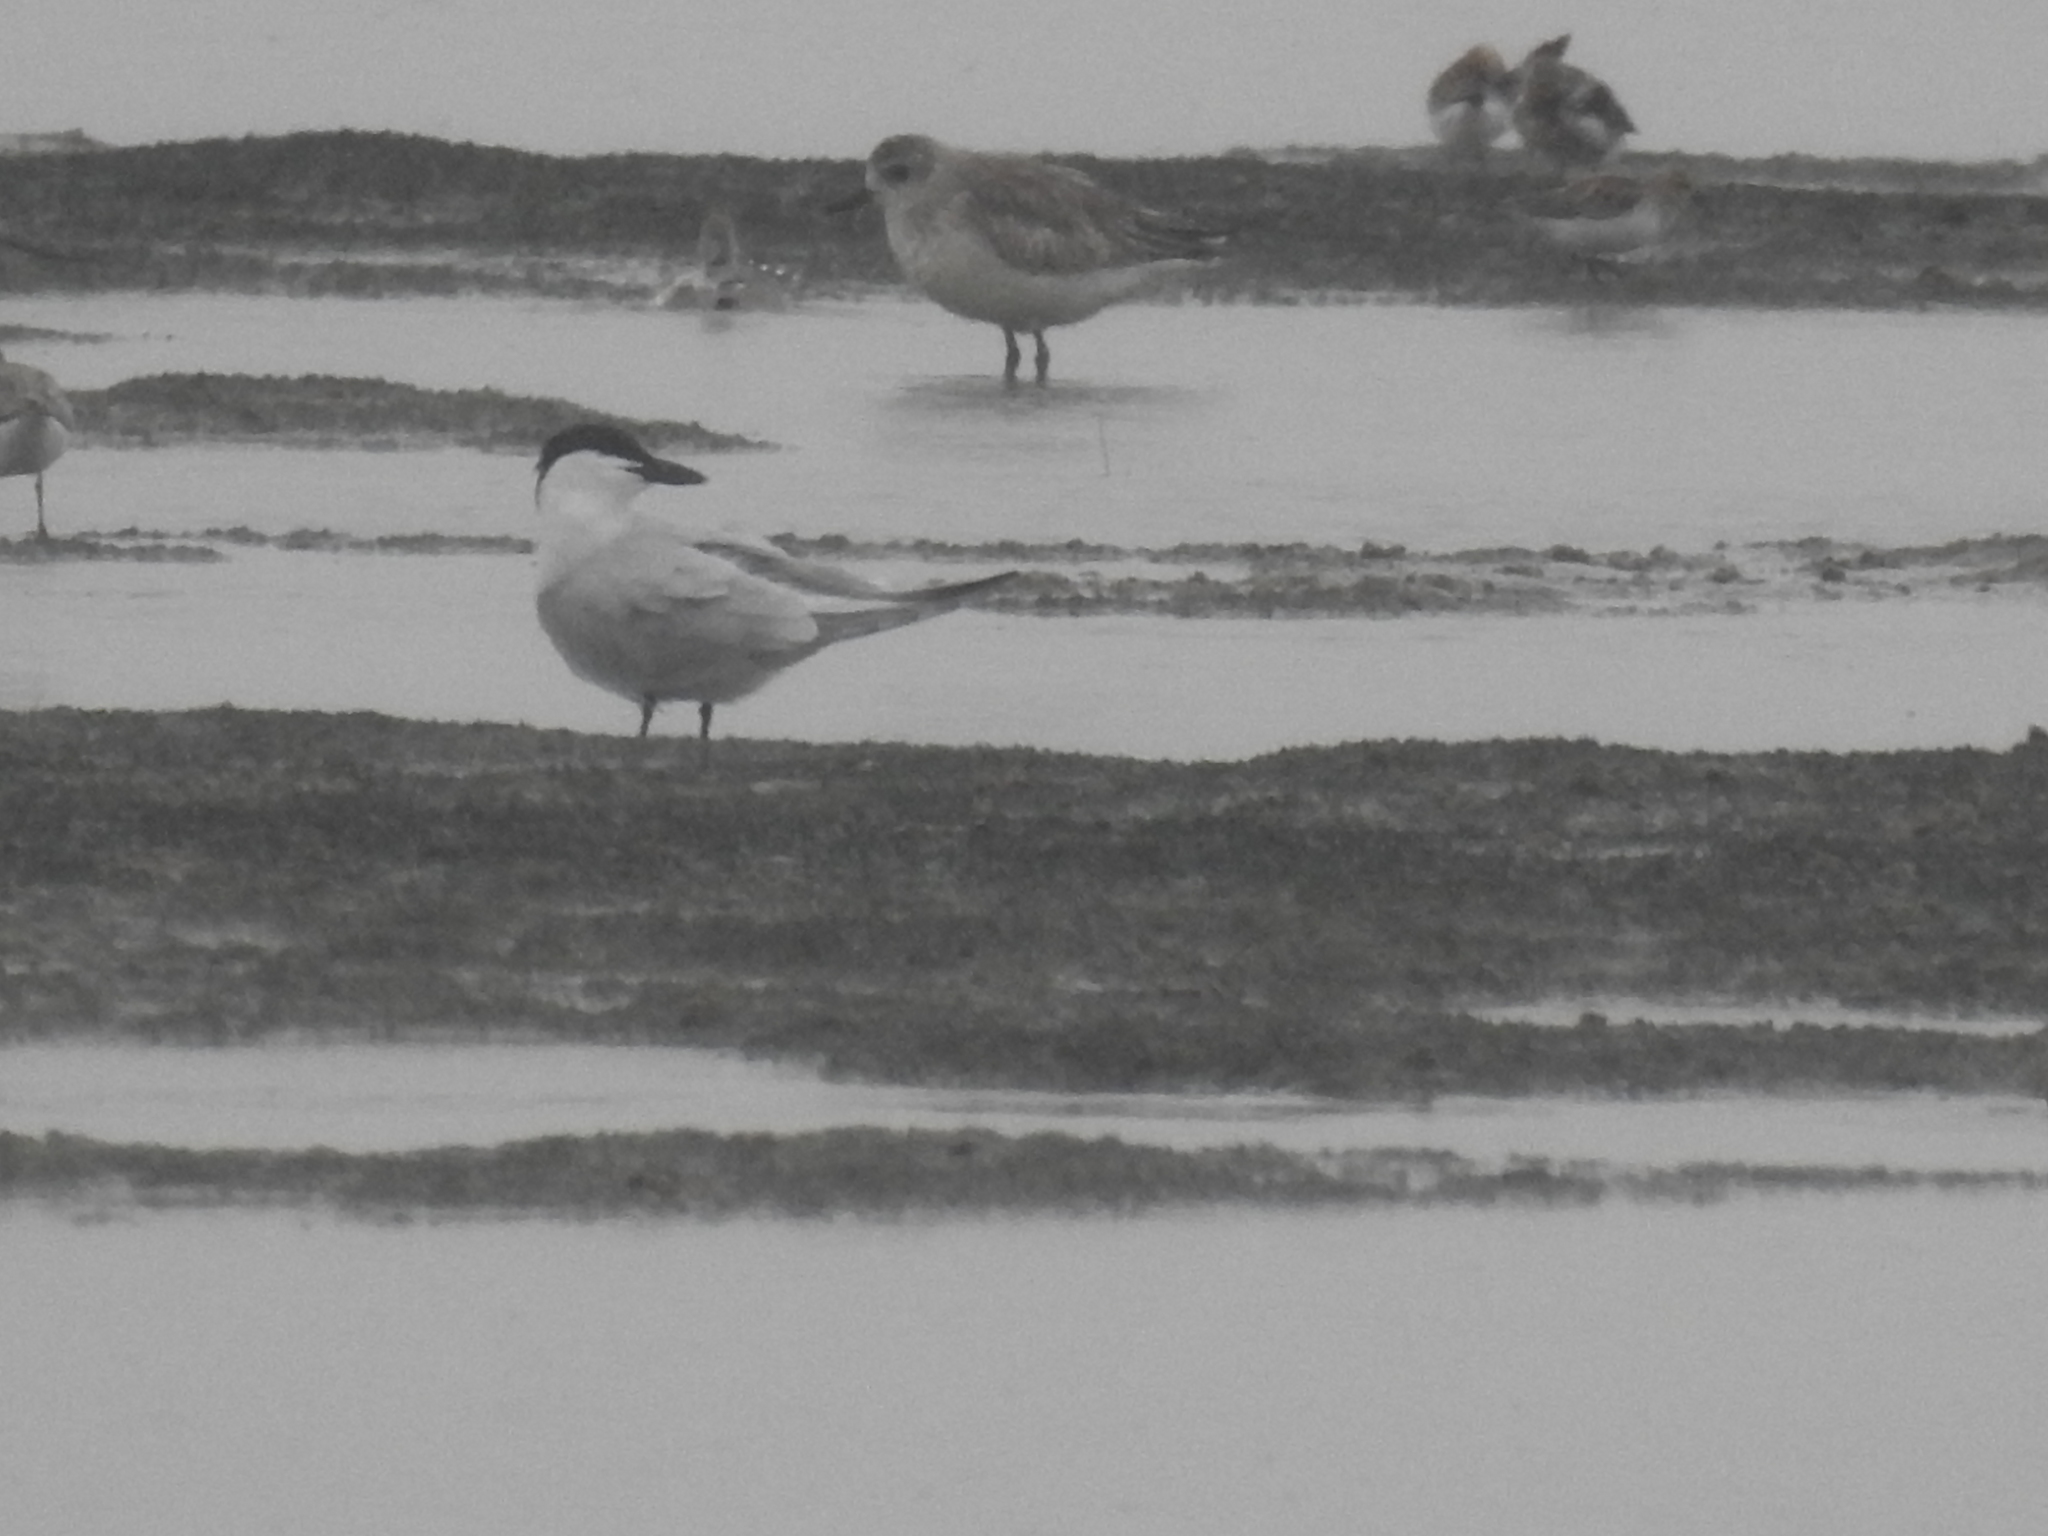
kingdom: Animalia
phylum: Chordata
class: Aves
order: Charadriiformes
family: Laridae
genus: Gelochelidon
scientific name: Gelochelidon nilotica
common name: Gull-billed tern
